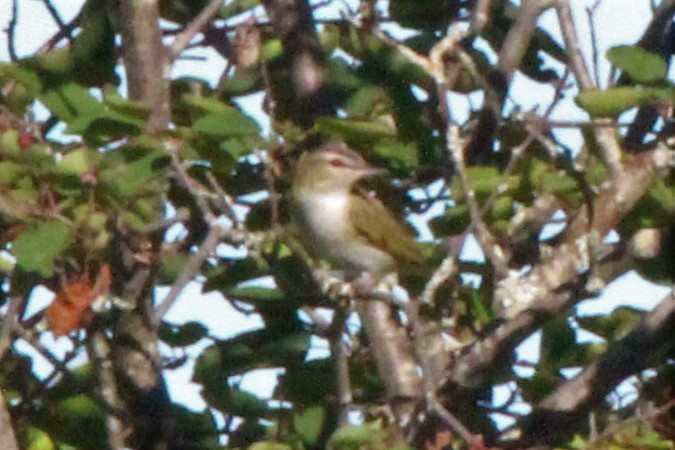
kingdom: Animalia
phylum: Chordata
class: Aves
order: Passeriformes
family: Vireonidae
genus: Vireo
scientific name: Vireo olivaceus
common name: Red-eyed vireo
